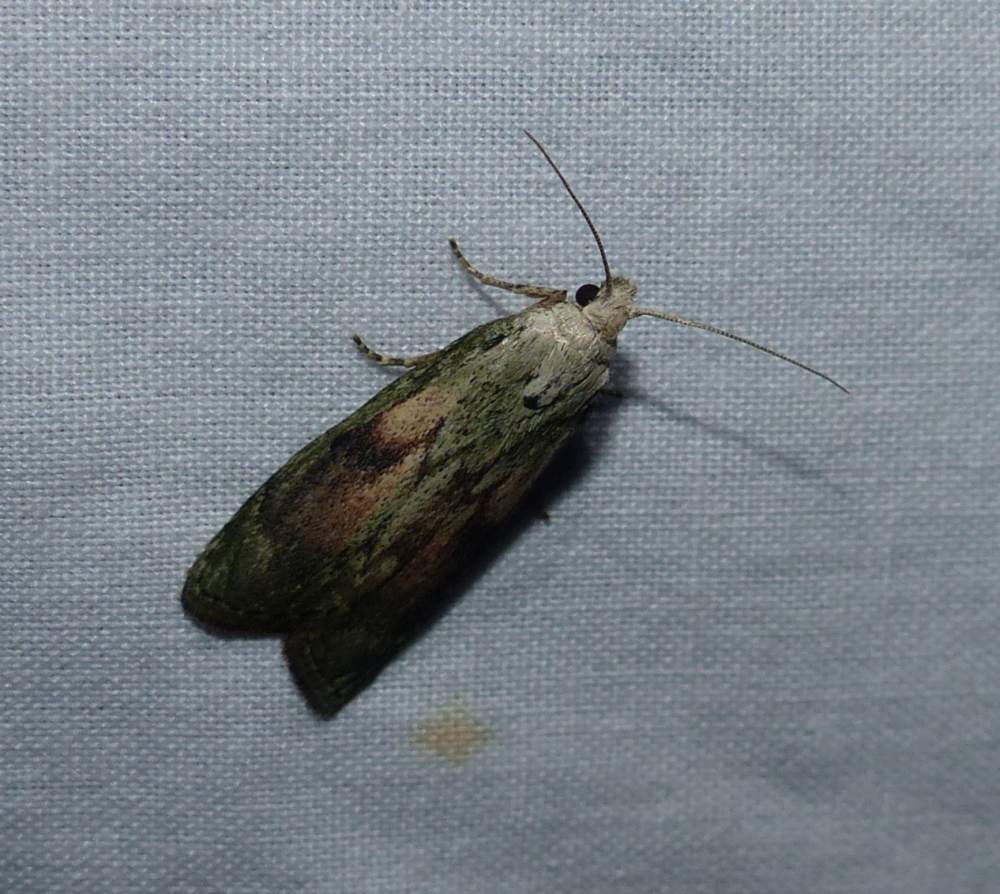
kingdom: Animalia
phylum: Arthropoda
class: Insecta
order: Lepidoptera
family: Pyralidae
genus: Aphomia
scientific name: Aphomia sociella
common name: Bee moth
